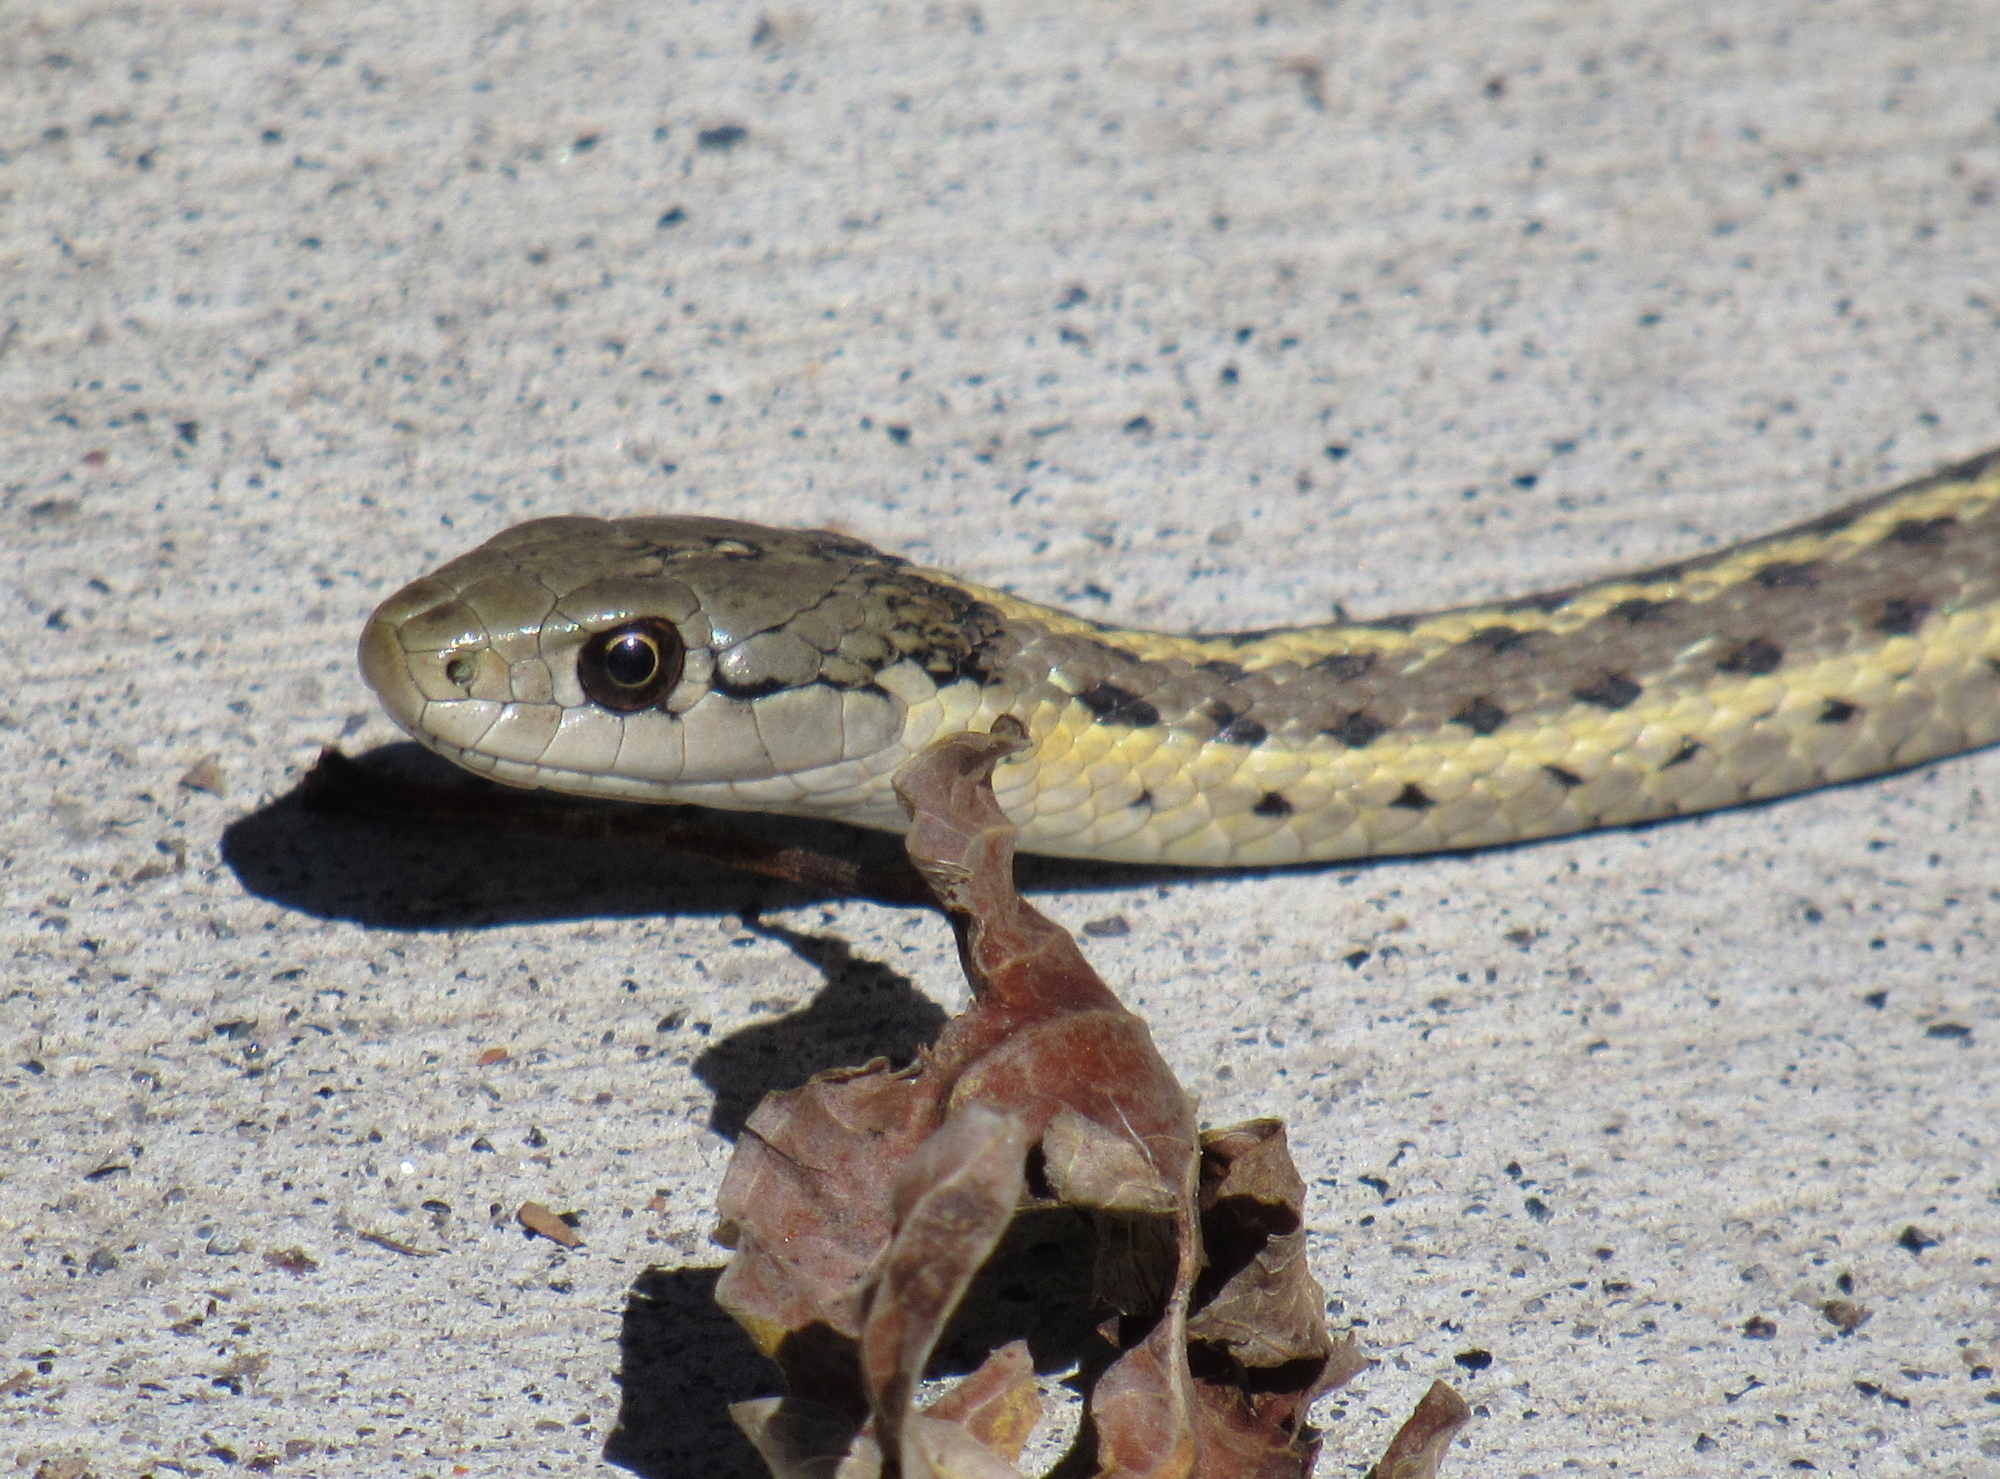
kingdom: Animalia
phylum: Chordata
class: Squamata
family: Colubridae
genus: Thamnophis
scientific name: Thamnophis elegans
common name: Western terrestrial garter snake
